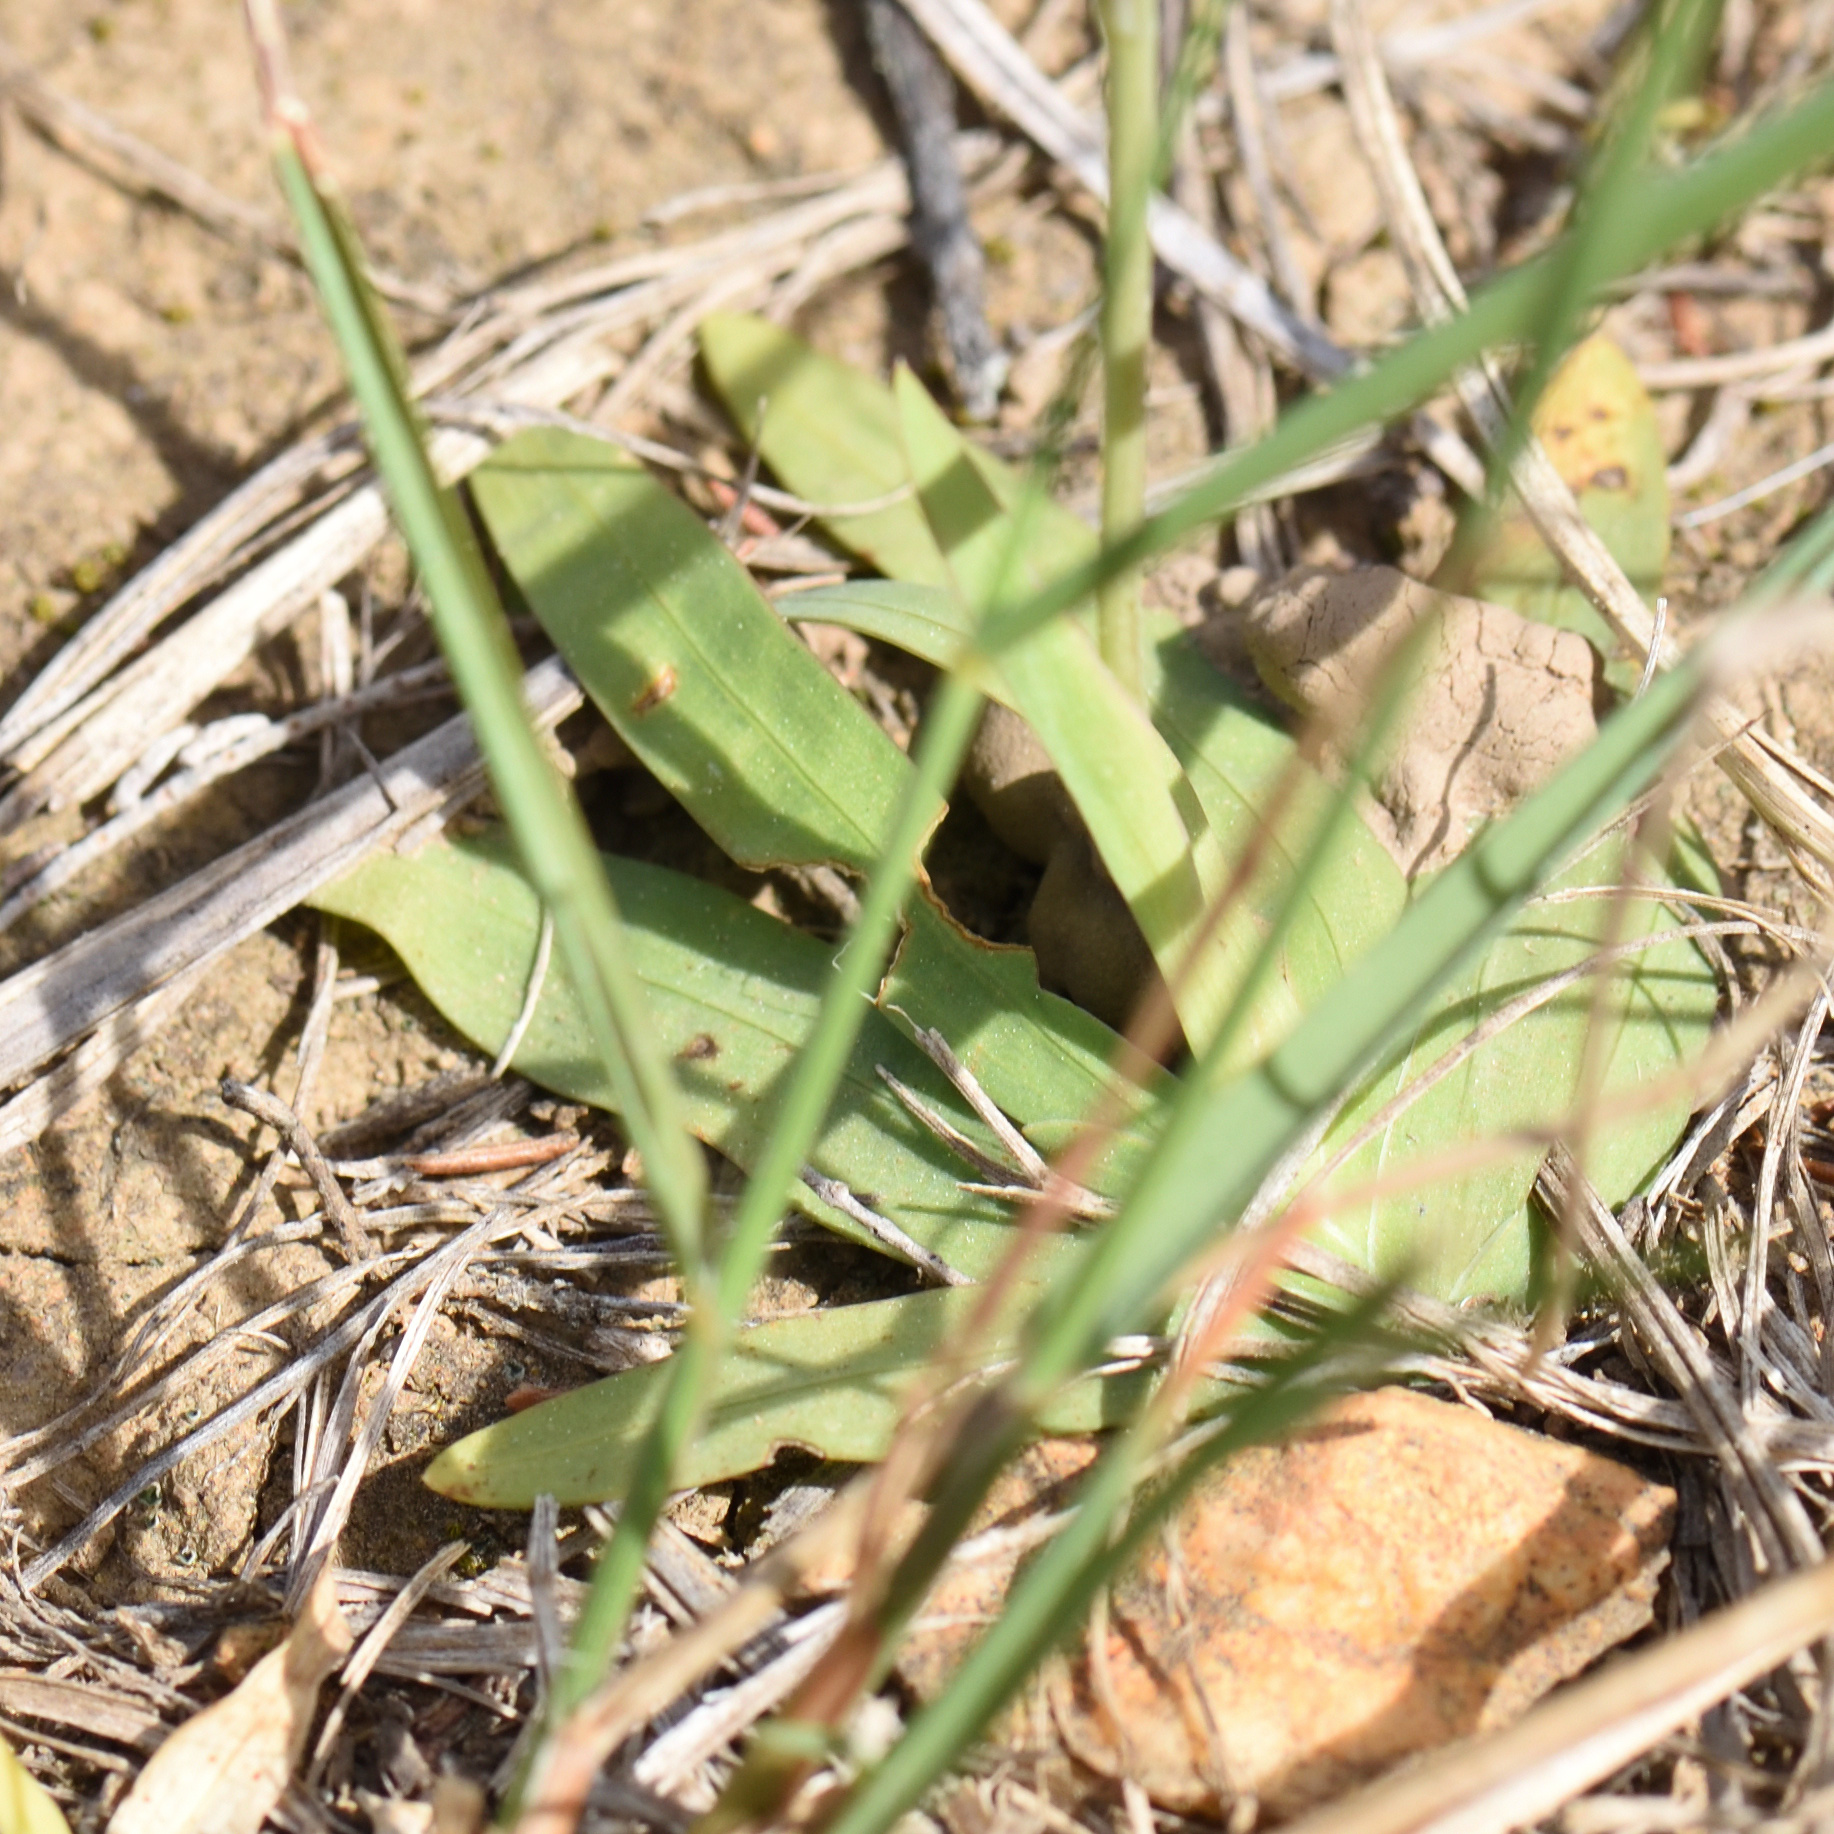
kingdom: Plantae
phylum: Tracheophyta
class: Liliopsida
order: Asparagales
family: Iridaceae
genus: Freesia
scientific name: Freesia verrucosa
